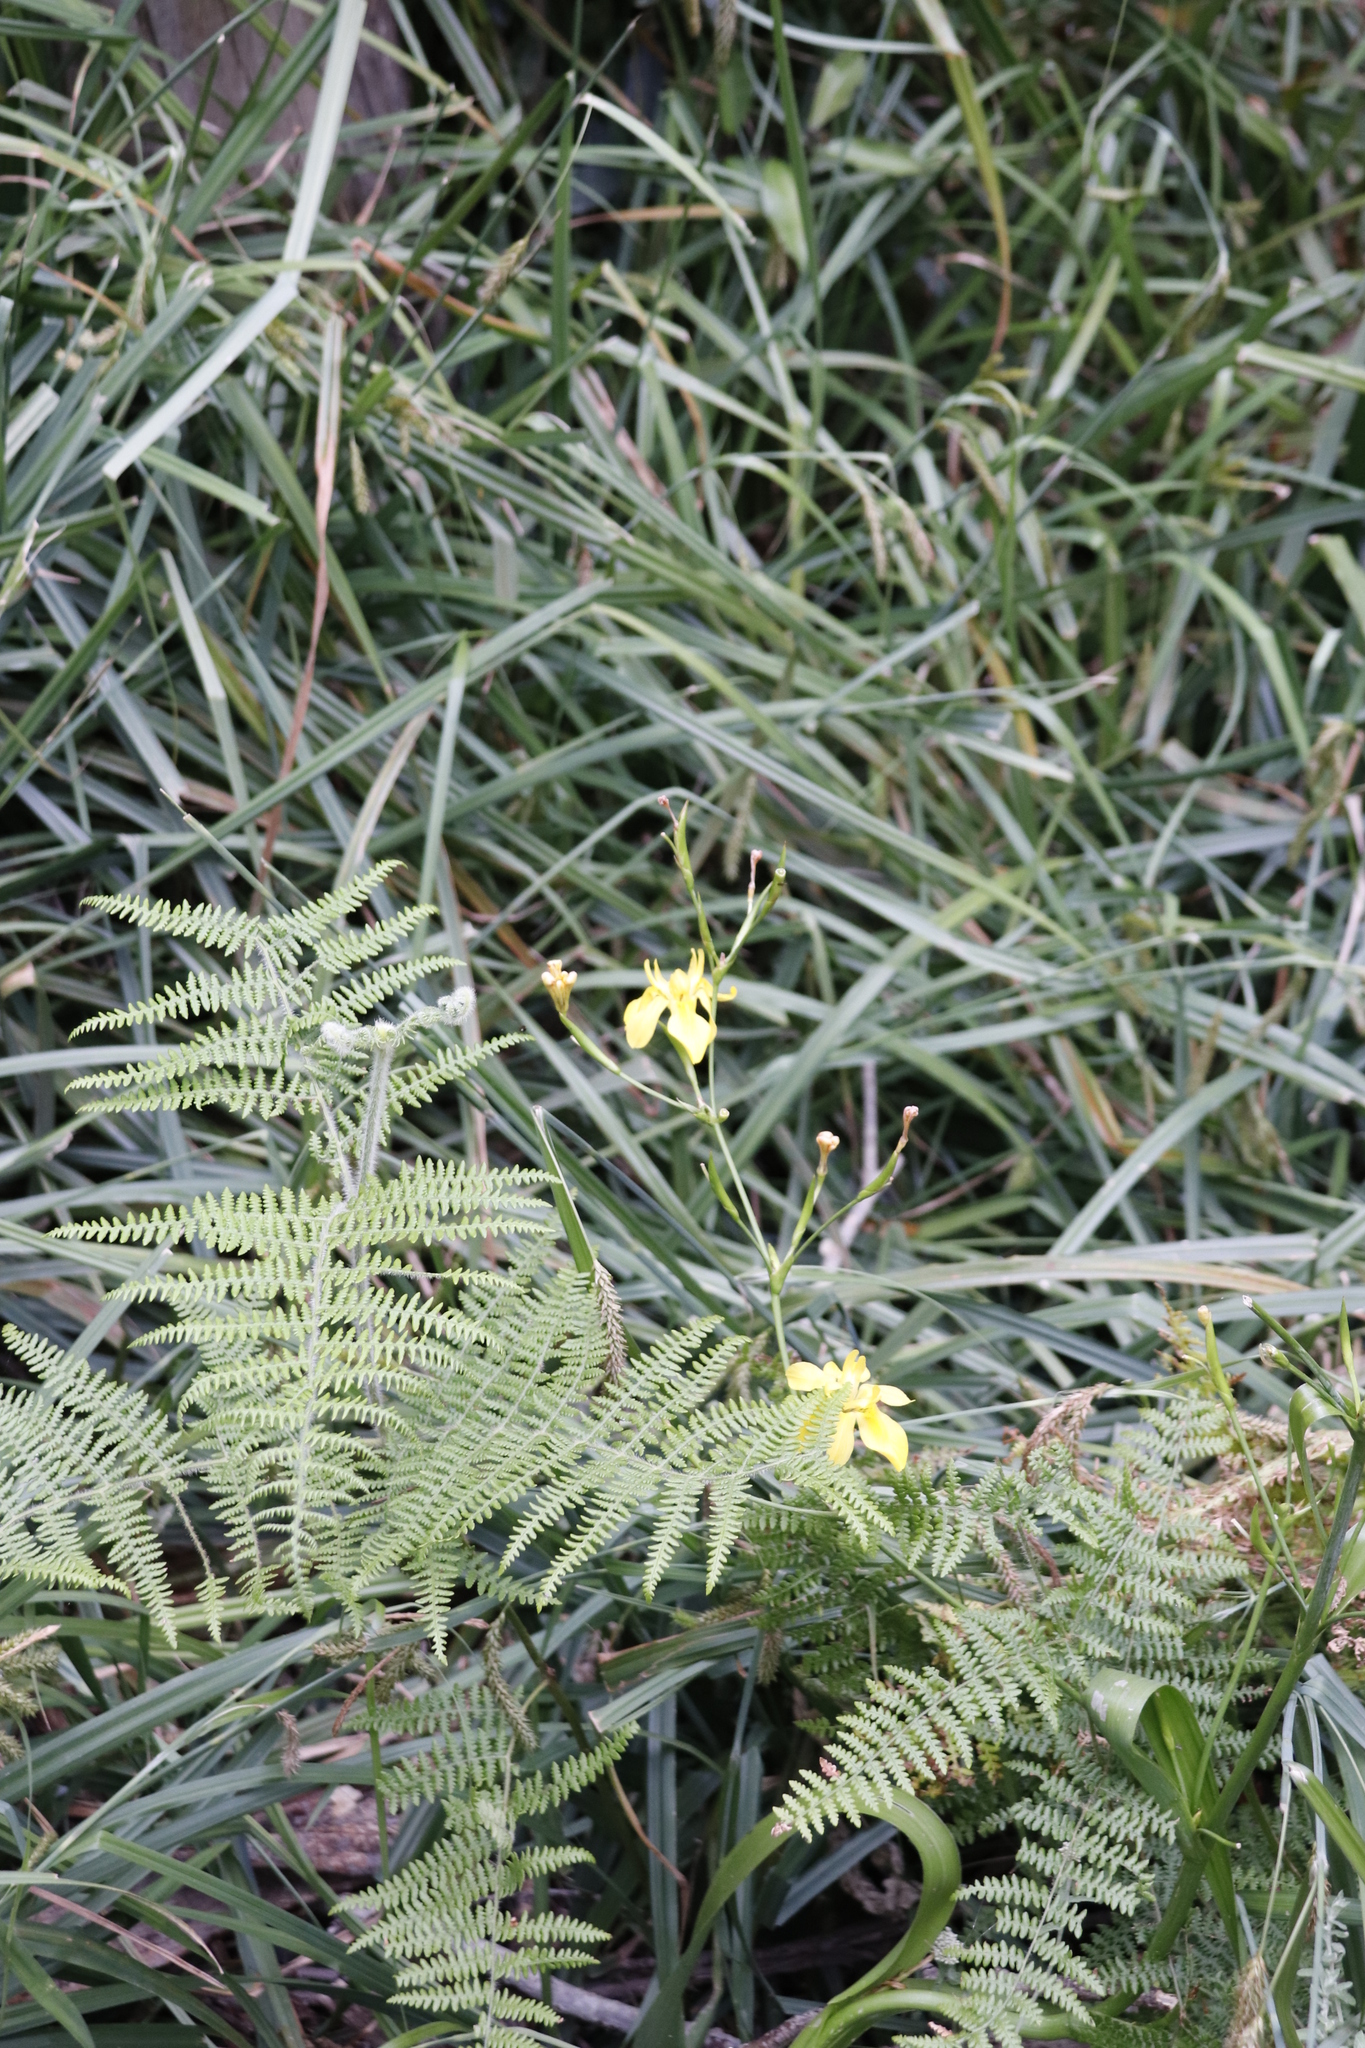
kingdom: Plantae
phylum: Tracheophyta
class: Liliopsida
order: Asparagales
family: Iridaceae
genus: Moraea
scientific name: Moraea ramosissima
